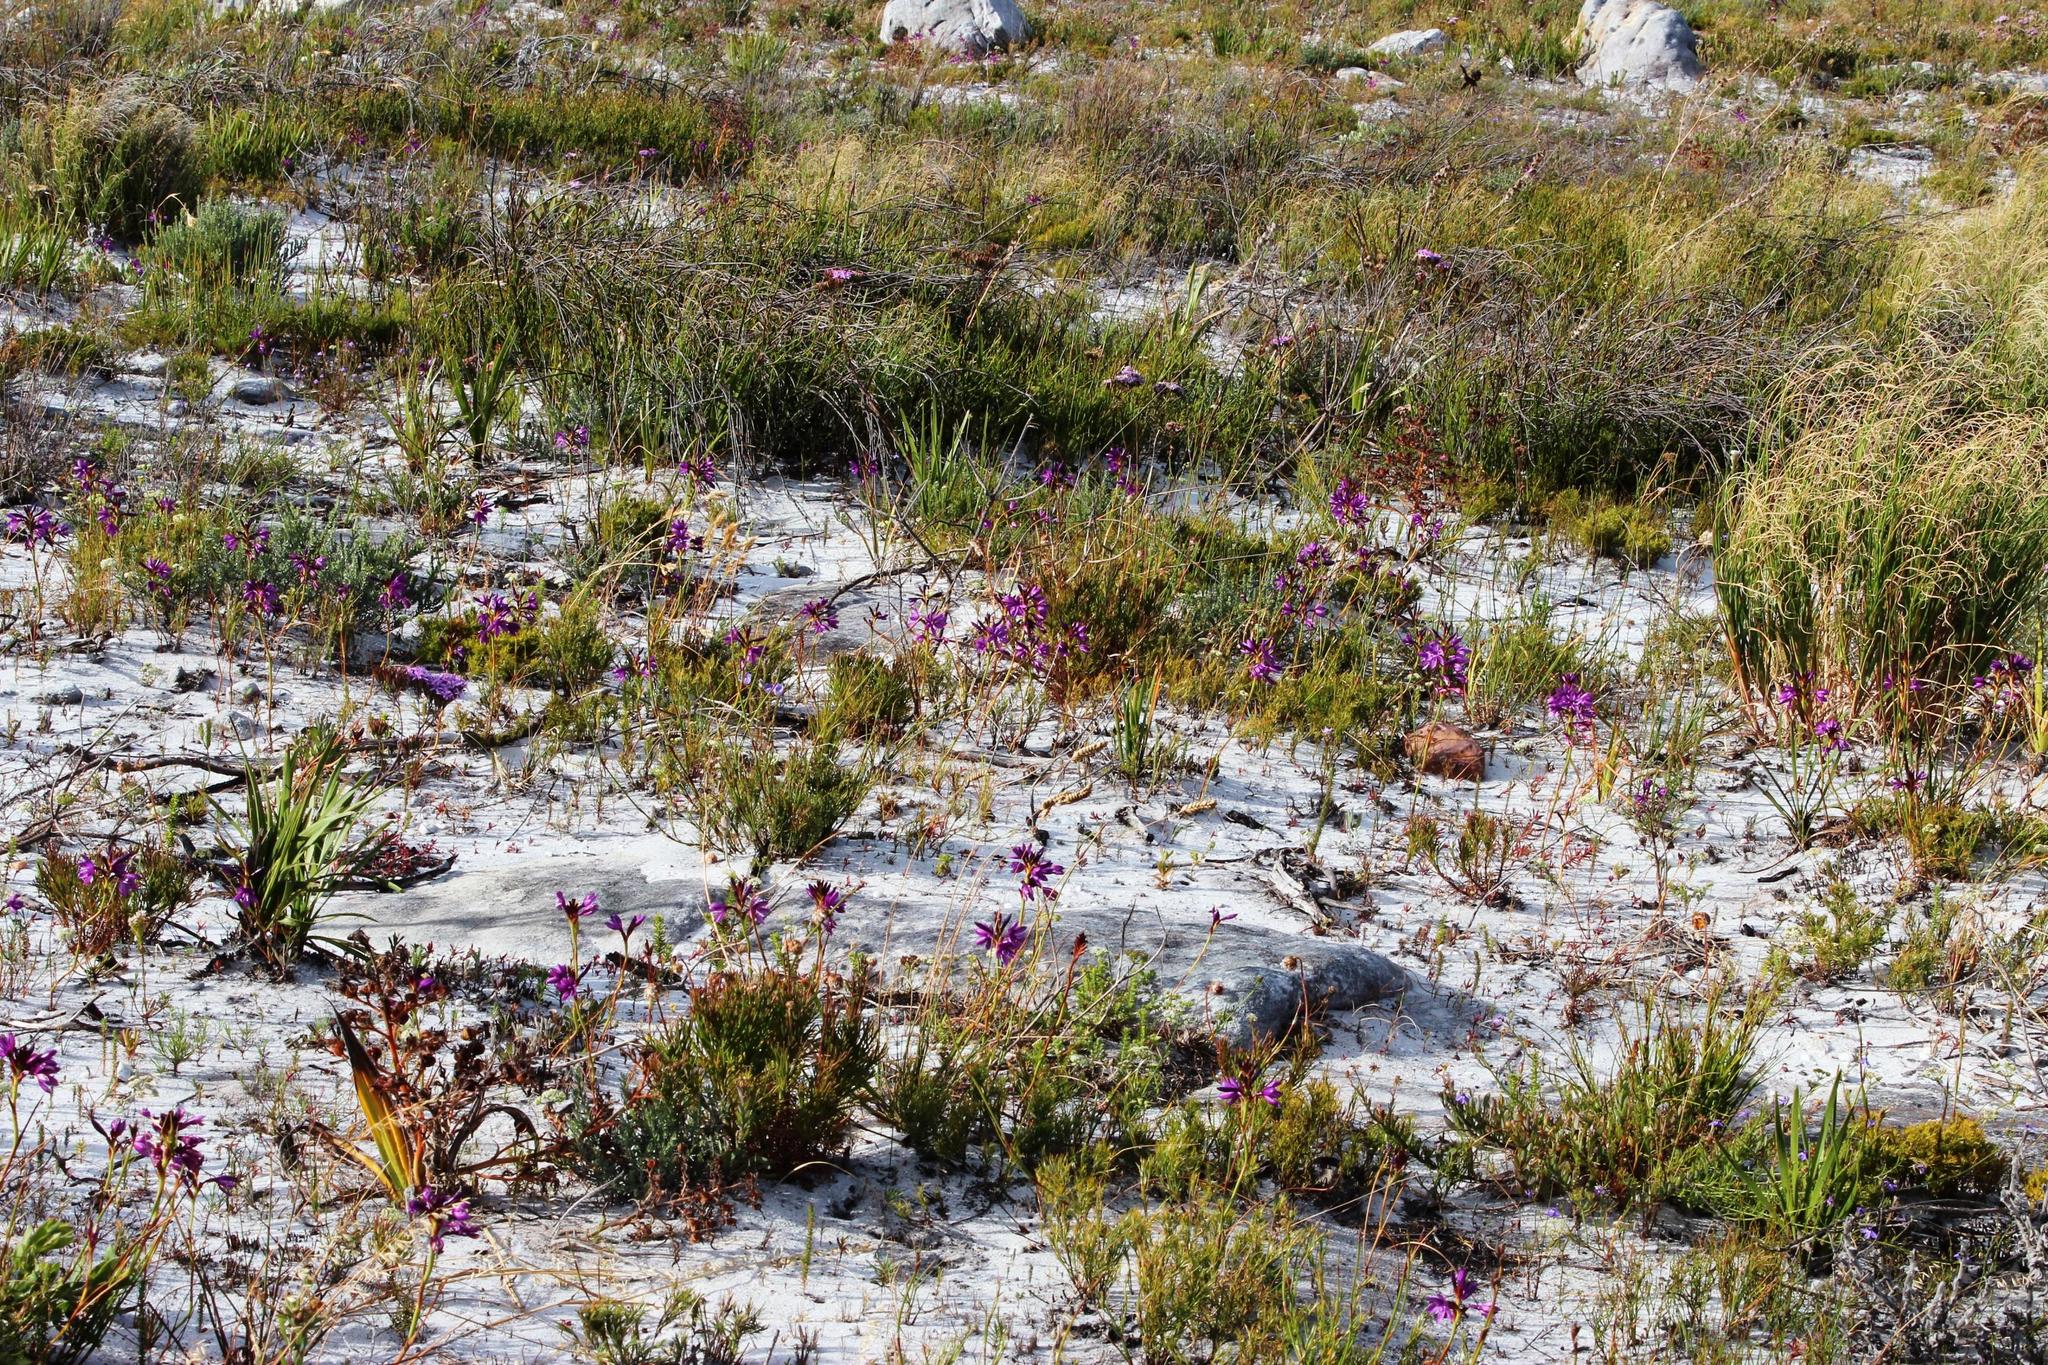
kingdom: Plantae
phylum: Tracheophyta
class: Liliopsida
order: Asparagales
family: Iridaceae
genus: Thereianthus
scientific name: Thereianthus bracteolatus
